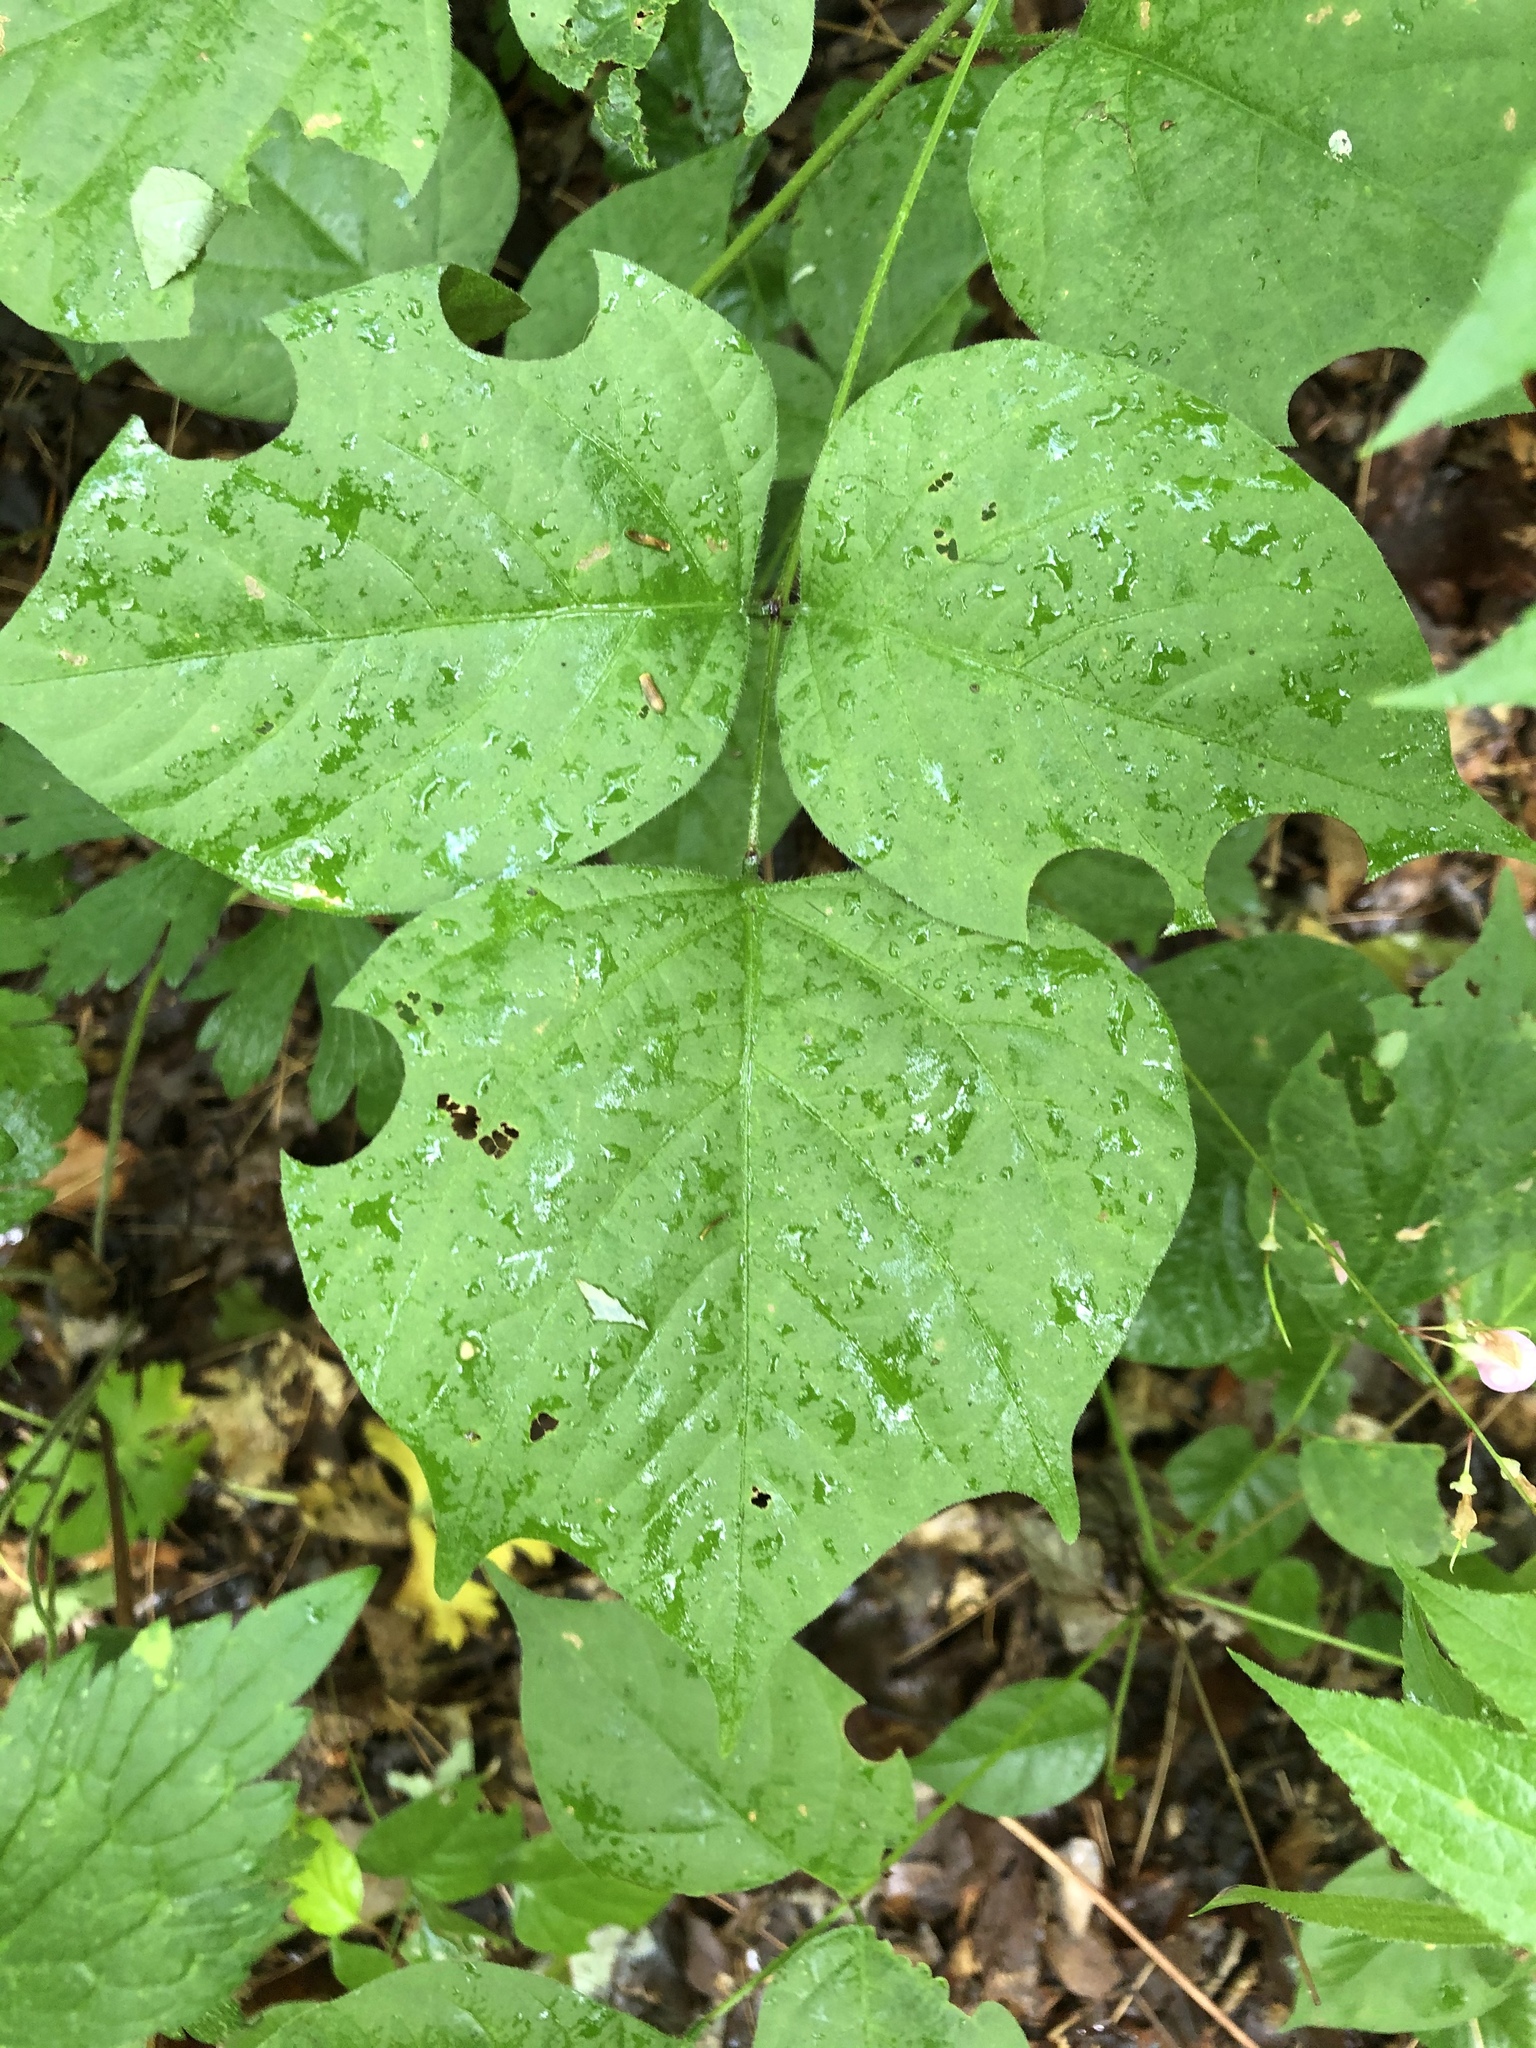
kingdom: Plantae
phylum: Tracheophyta
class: Magnoliopsida
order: Fabales
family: Fabaceae
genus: Hylodesmum
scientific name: Hylodesmum glutinosum
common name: Clustered-leaved tick-trefoil
